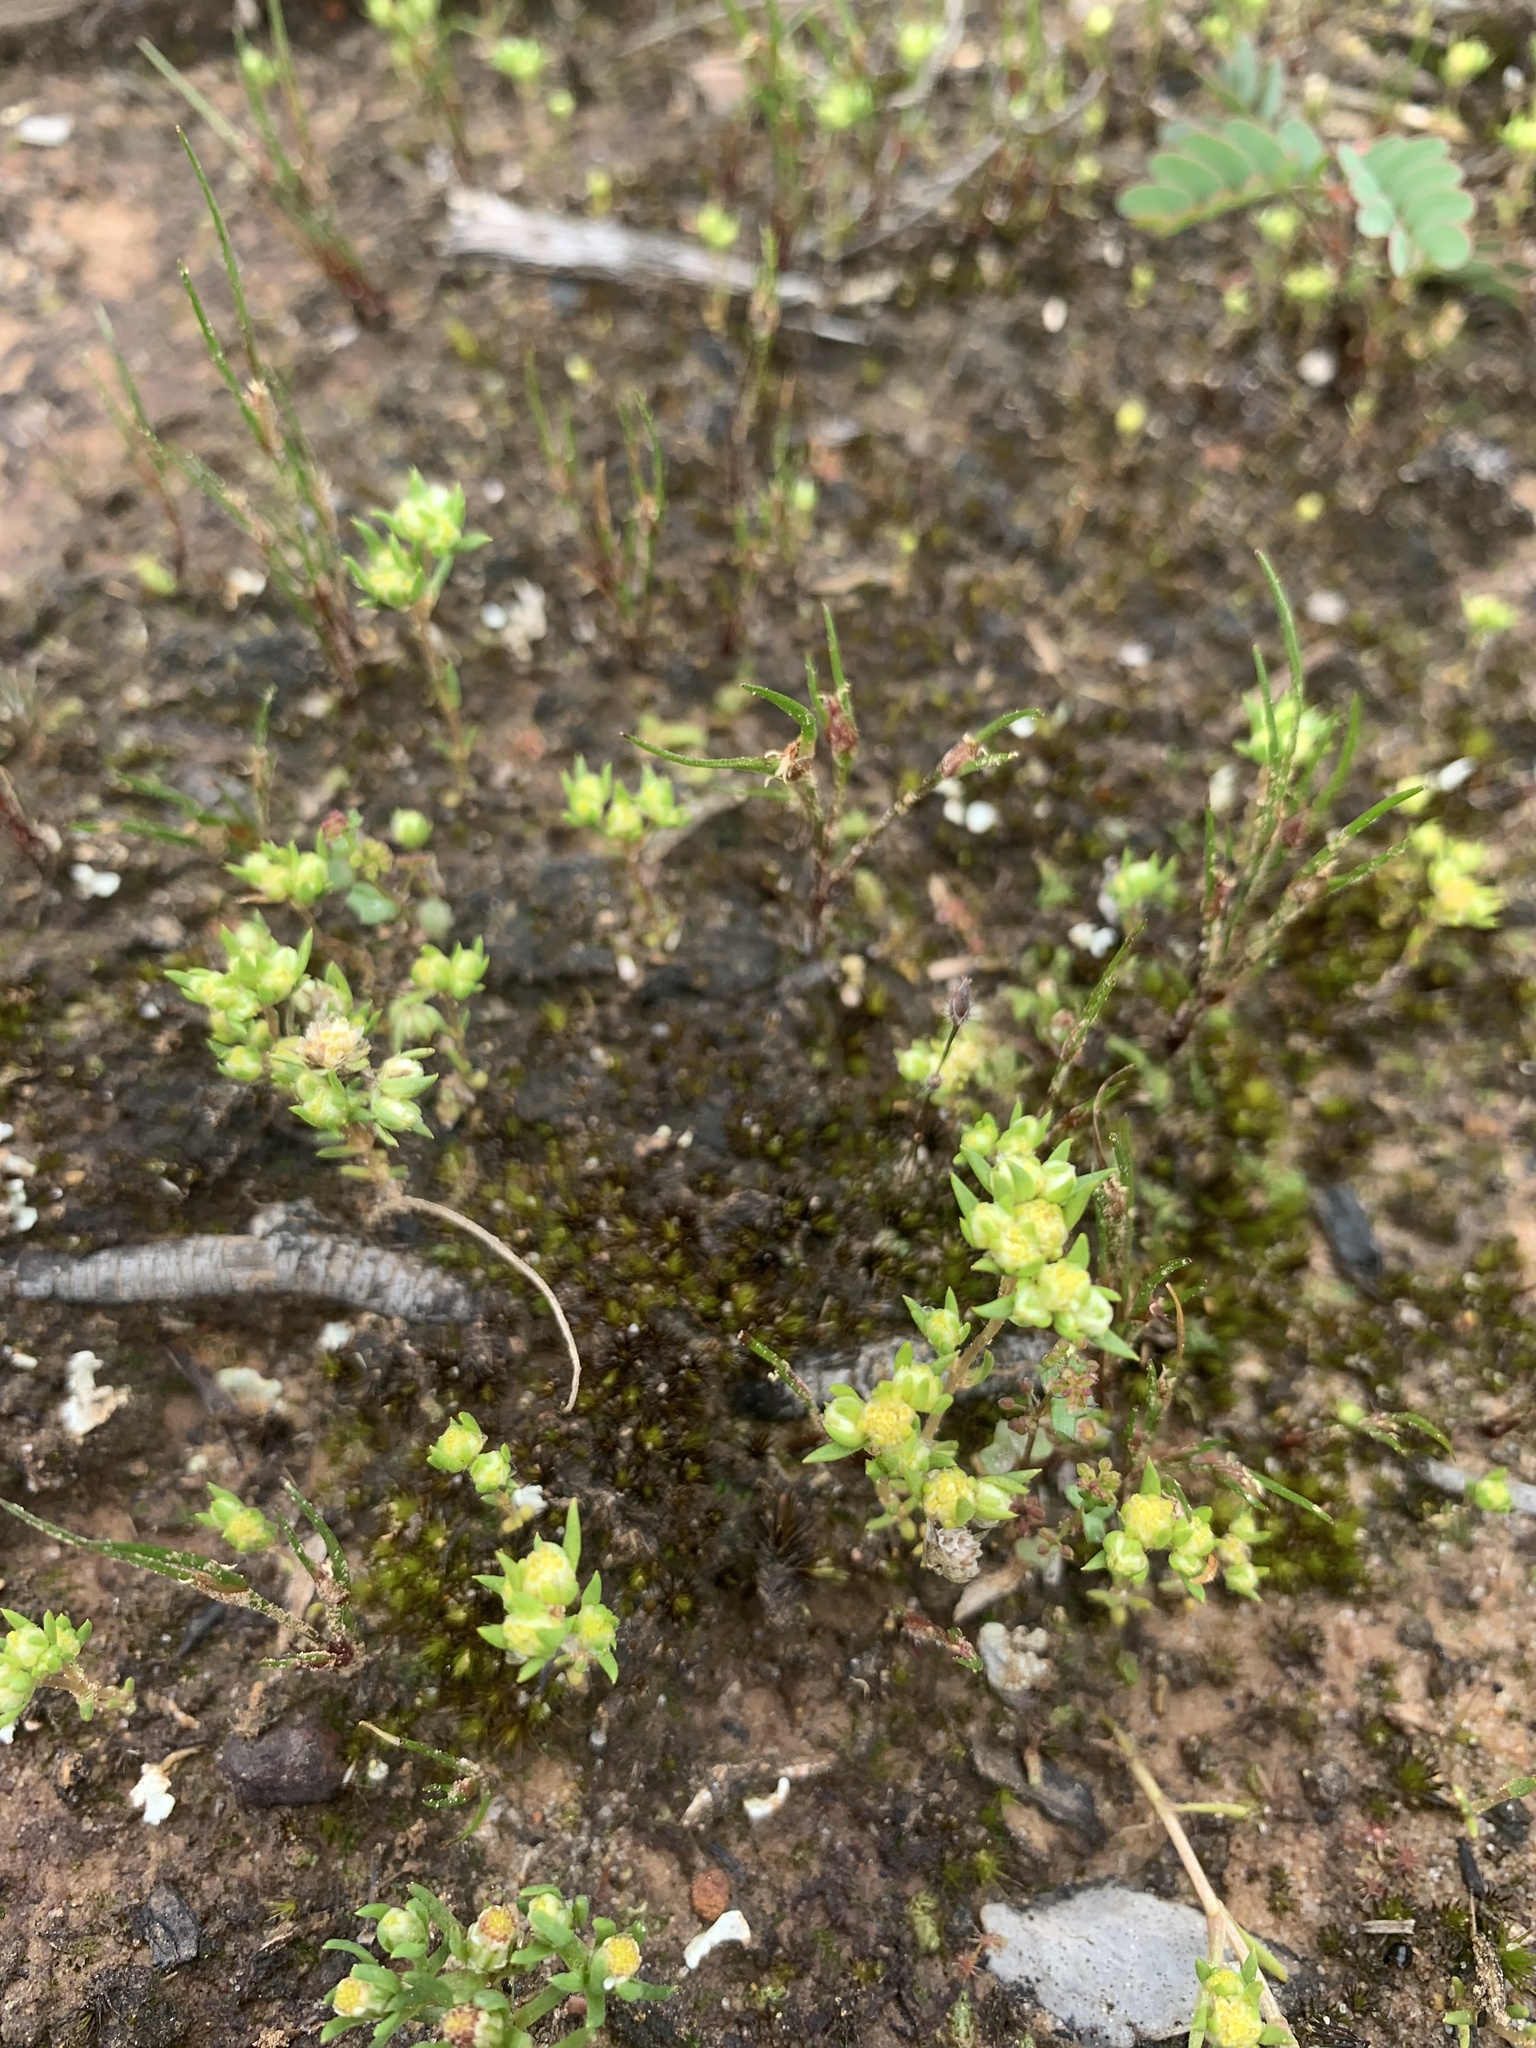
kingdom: Plantae
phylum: Tracheophyta
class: Magnoliopsida
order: Asterales
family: Asteraceae
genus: Siloxerus
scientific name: Siloxerus multiflorus
